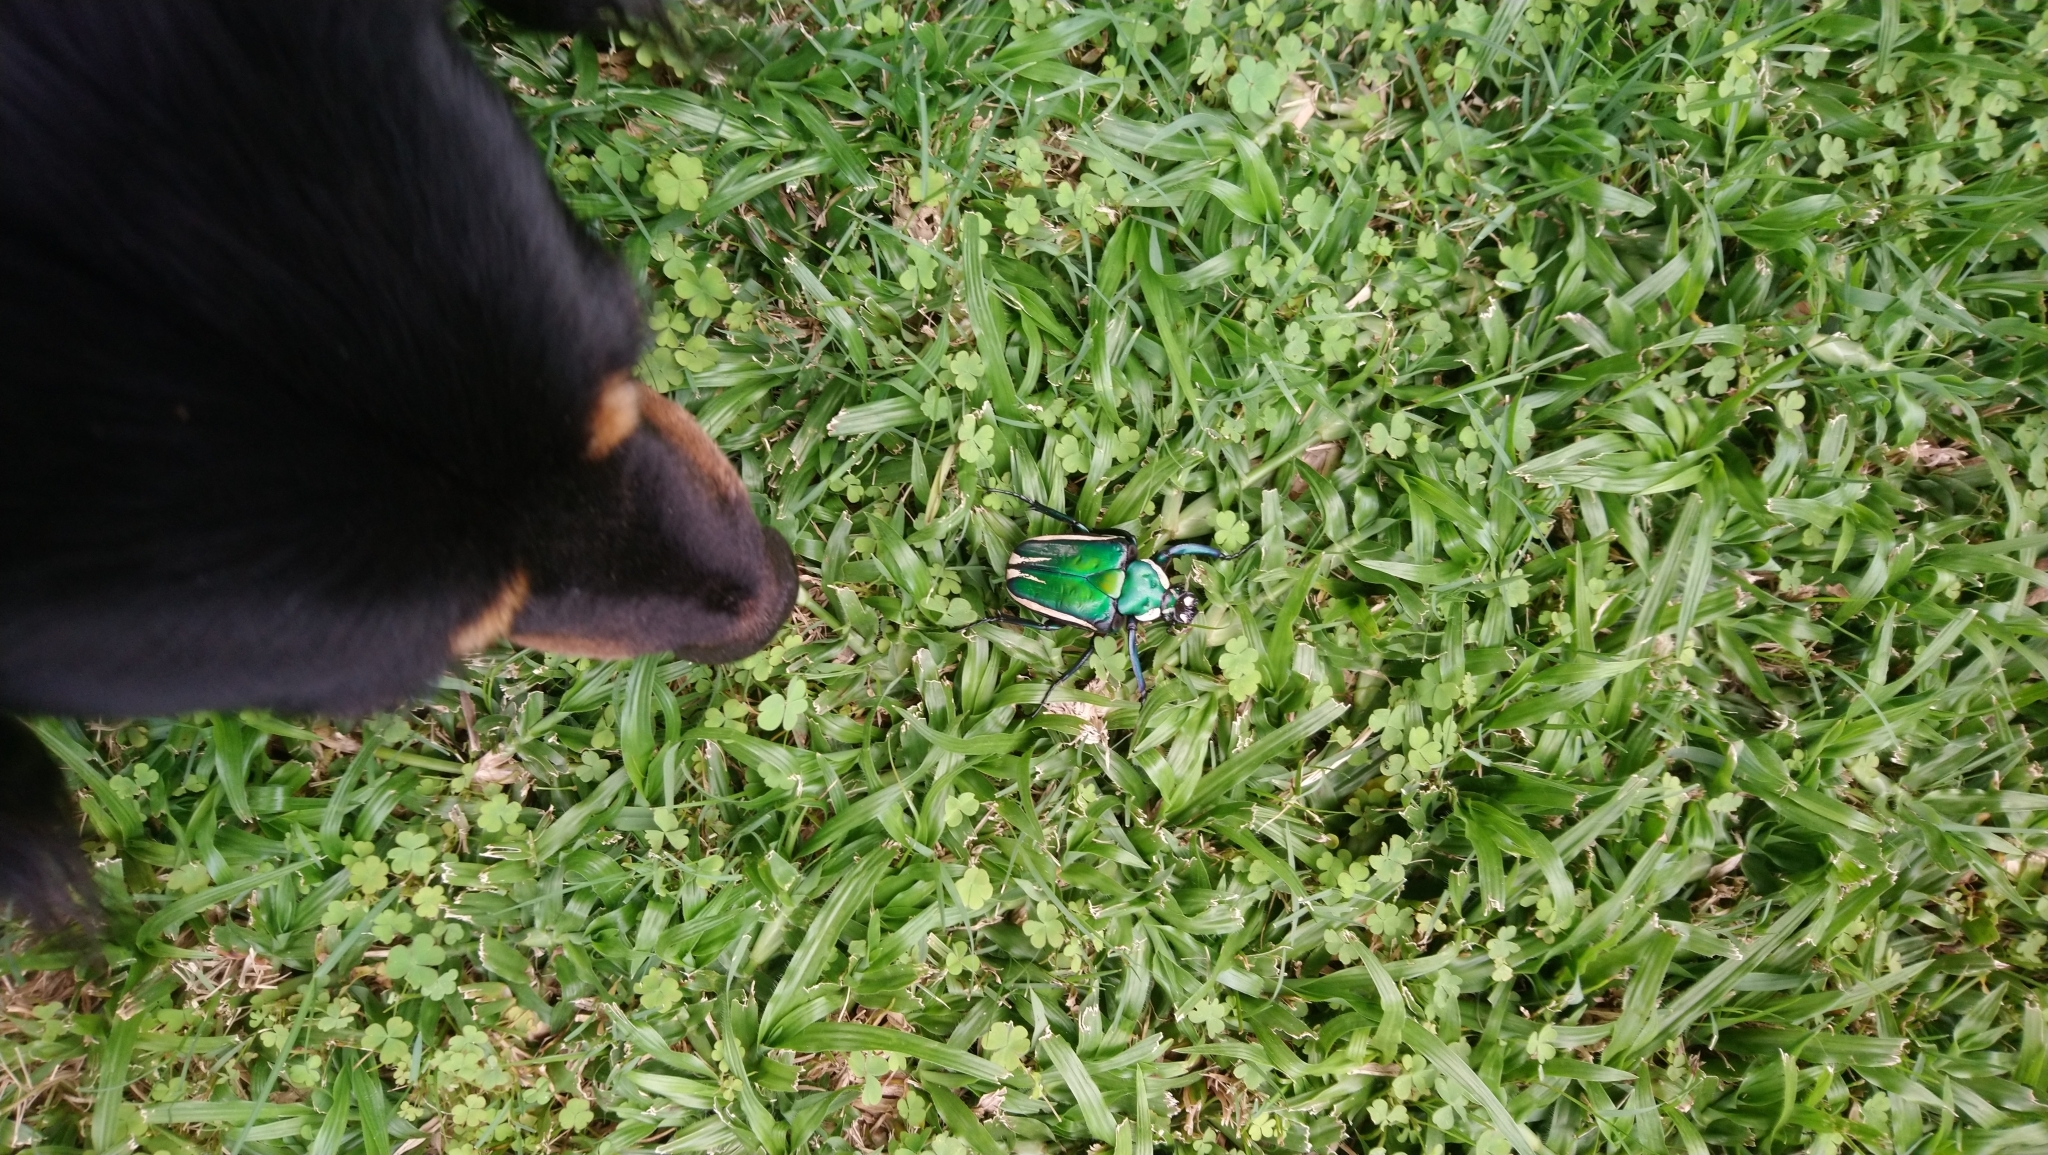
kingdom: Animalia
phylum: Arthropoda
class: Insecta
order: Coleoptera
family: Scarabaeidae
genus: Dicronorhina
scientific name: Dicronorhina derbyana
